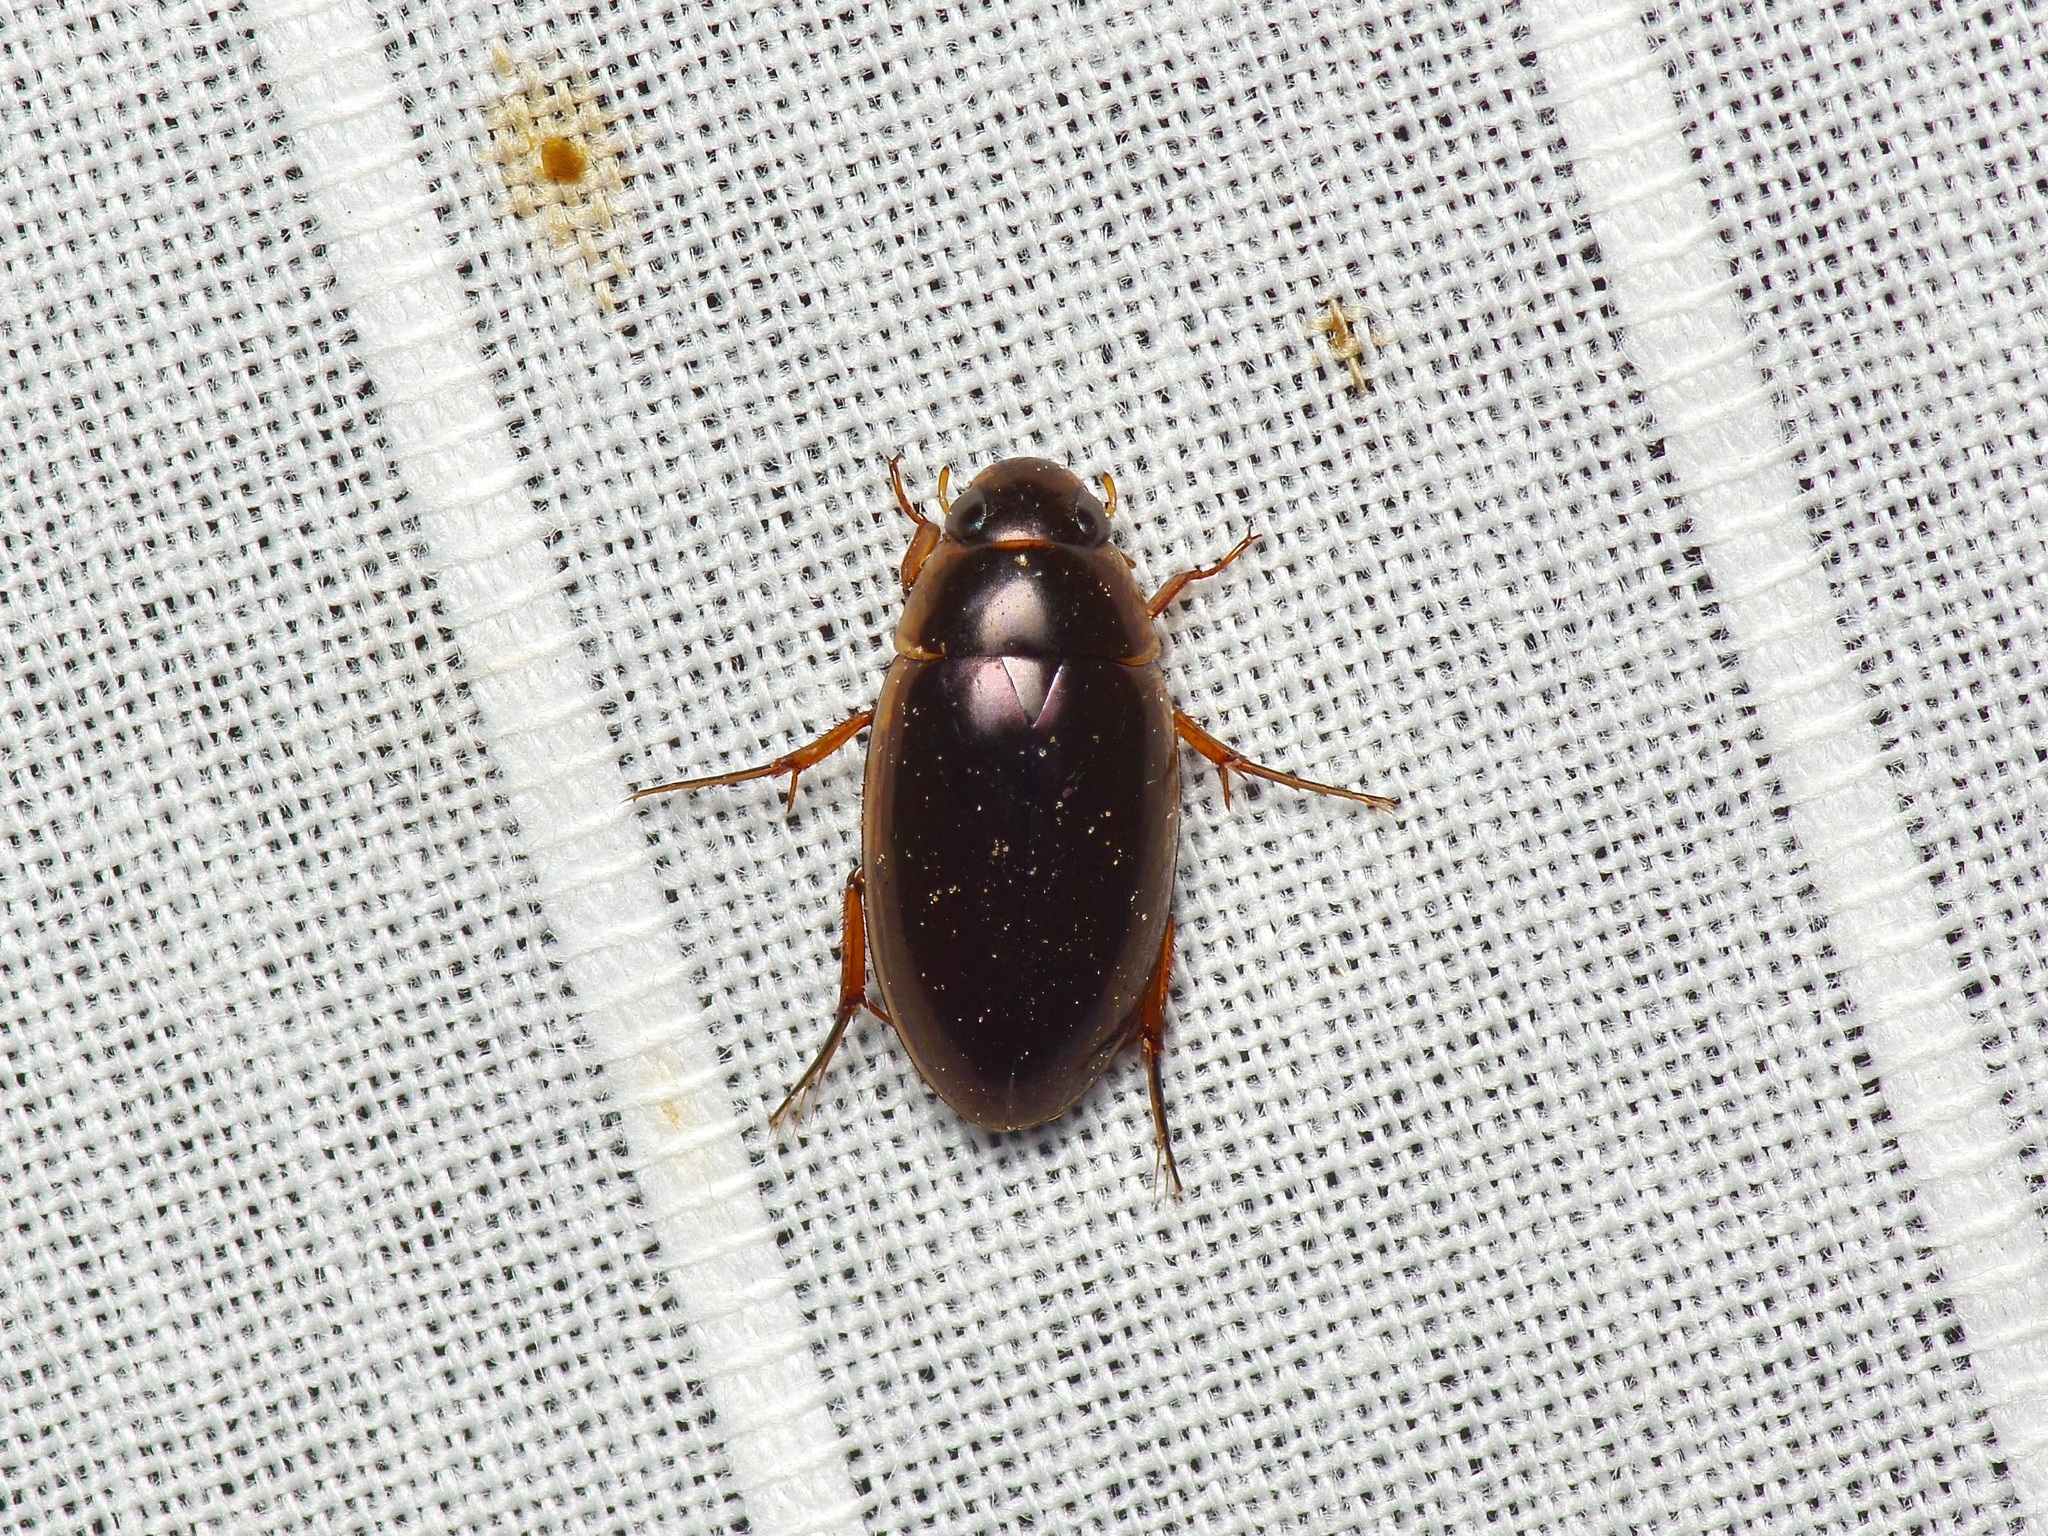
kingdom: Animalia
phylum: Arthropoda
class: Insecta
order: Coleoptera
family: Hydrophilidae
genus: Tropisternus
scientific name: Tropisternus lateralis
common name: Lateral-banded water scavenger beetle
